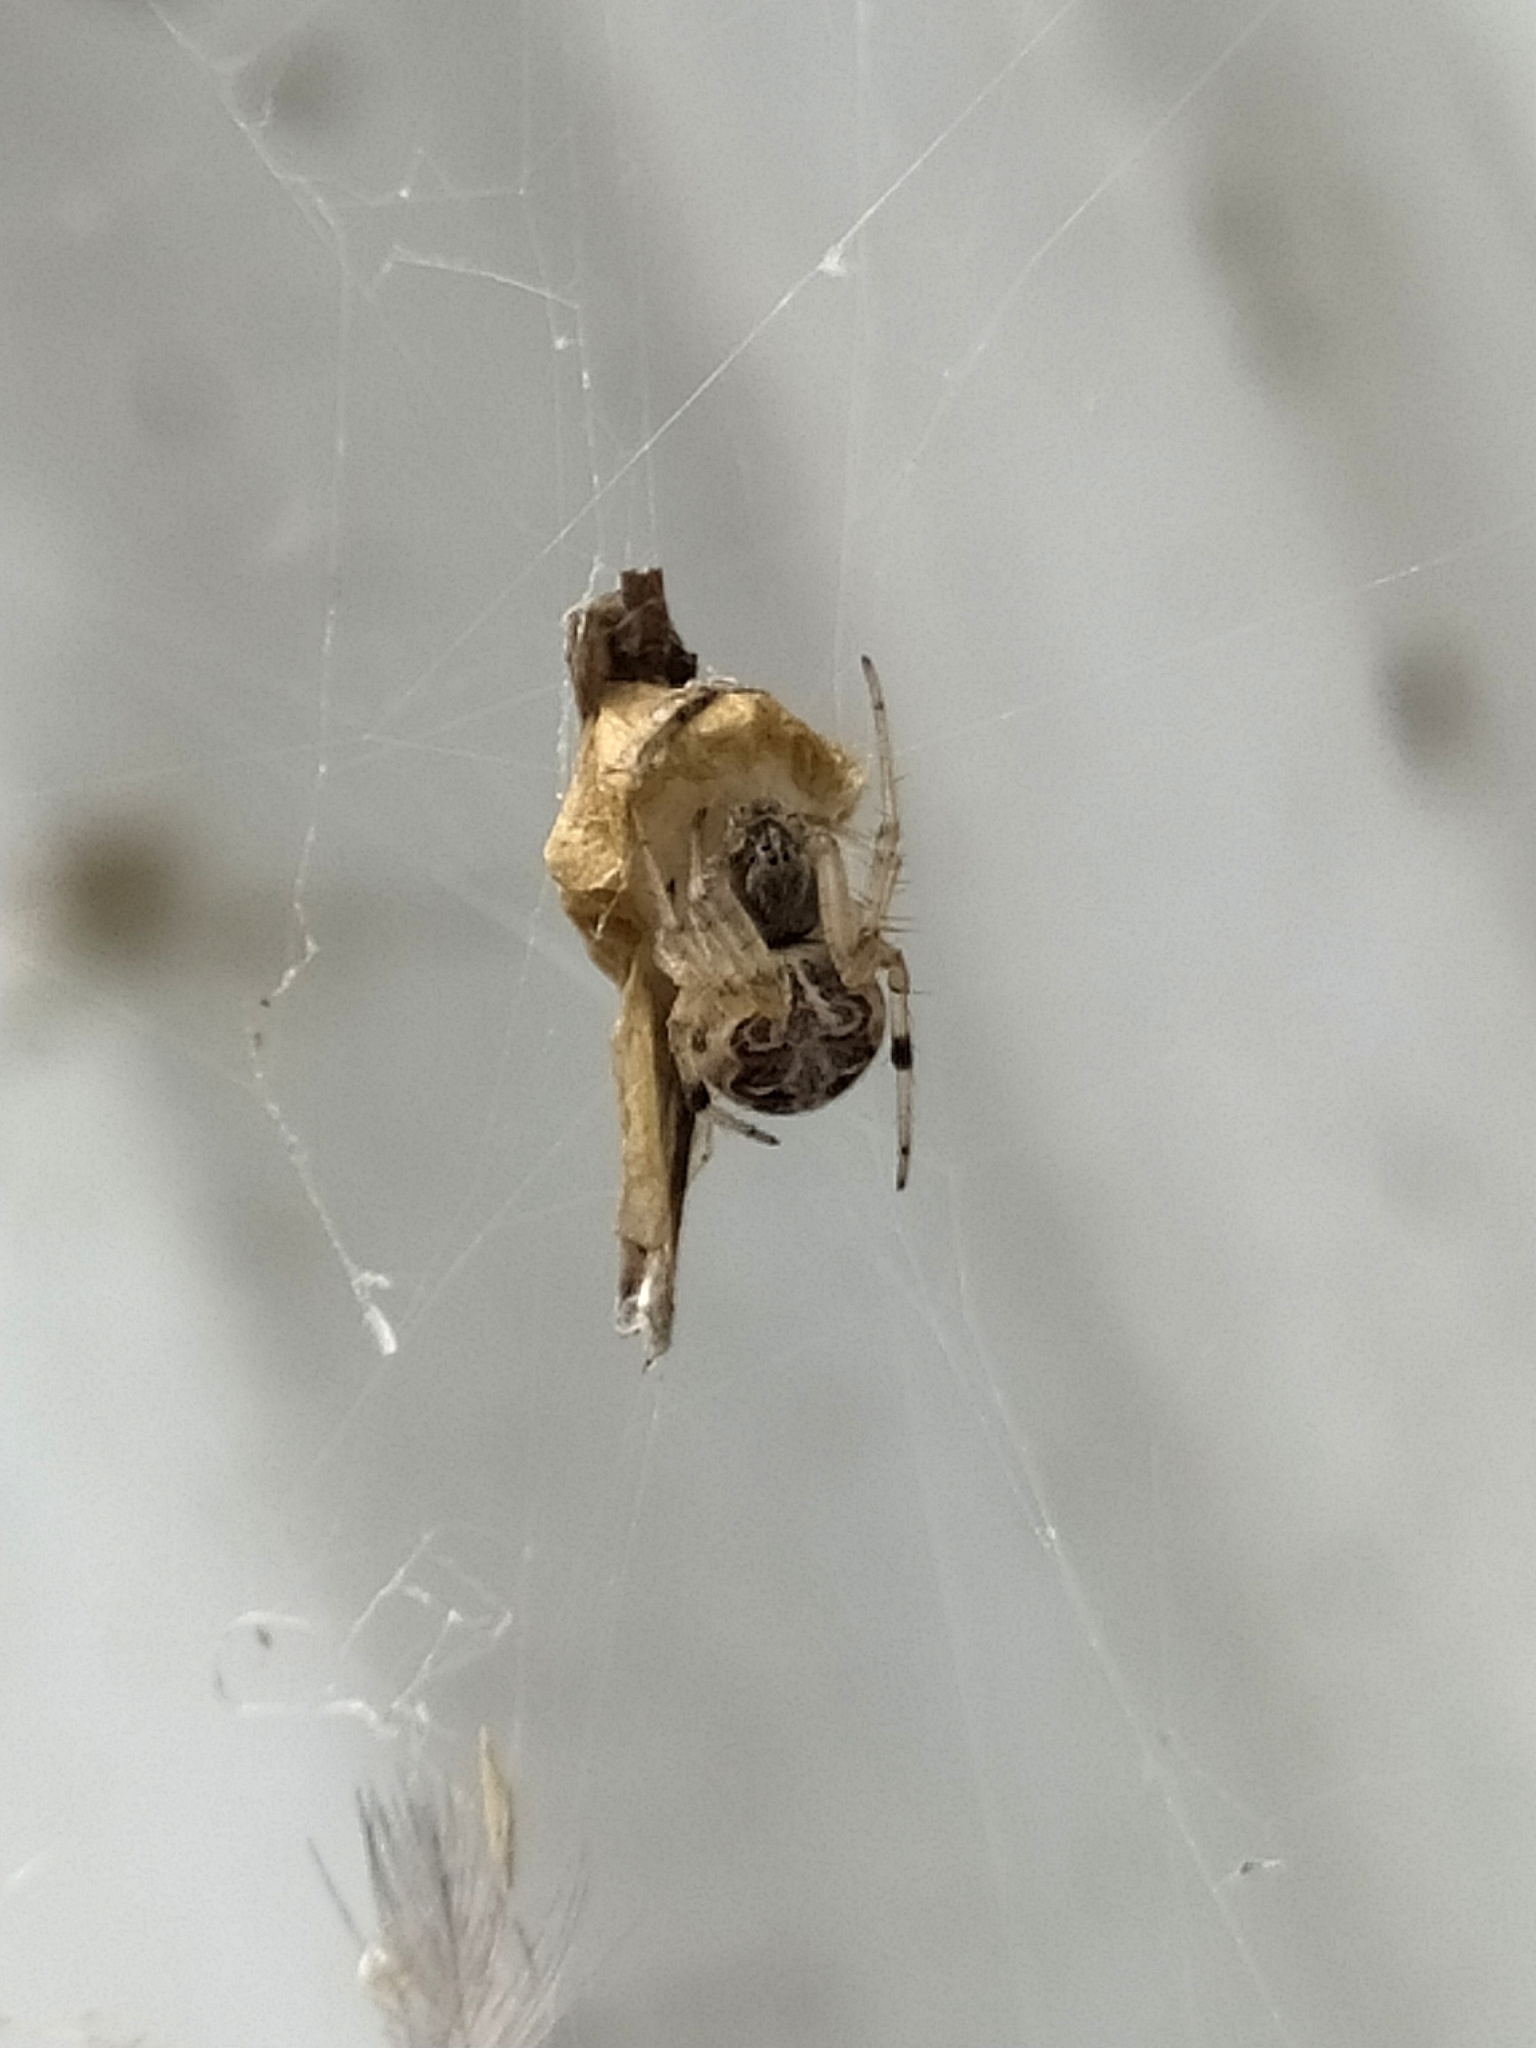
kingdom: Animalia
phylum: Arthropoda
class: Arachnida
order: Araneae
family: Araneidae
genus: Metazygia
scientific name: Metazygia
